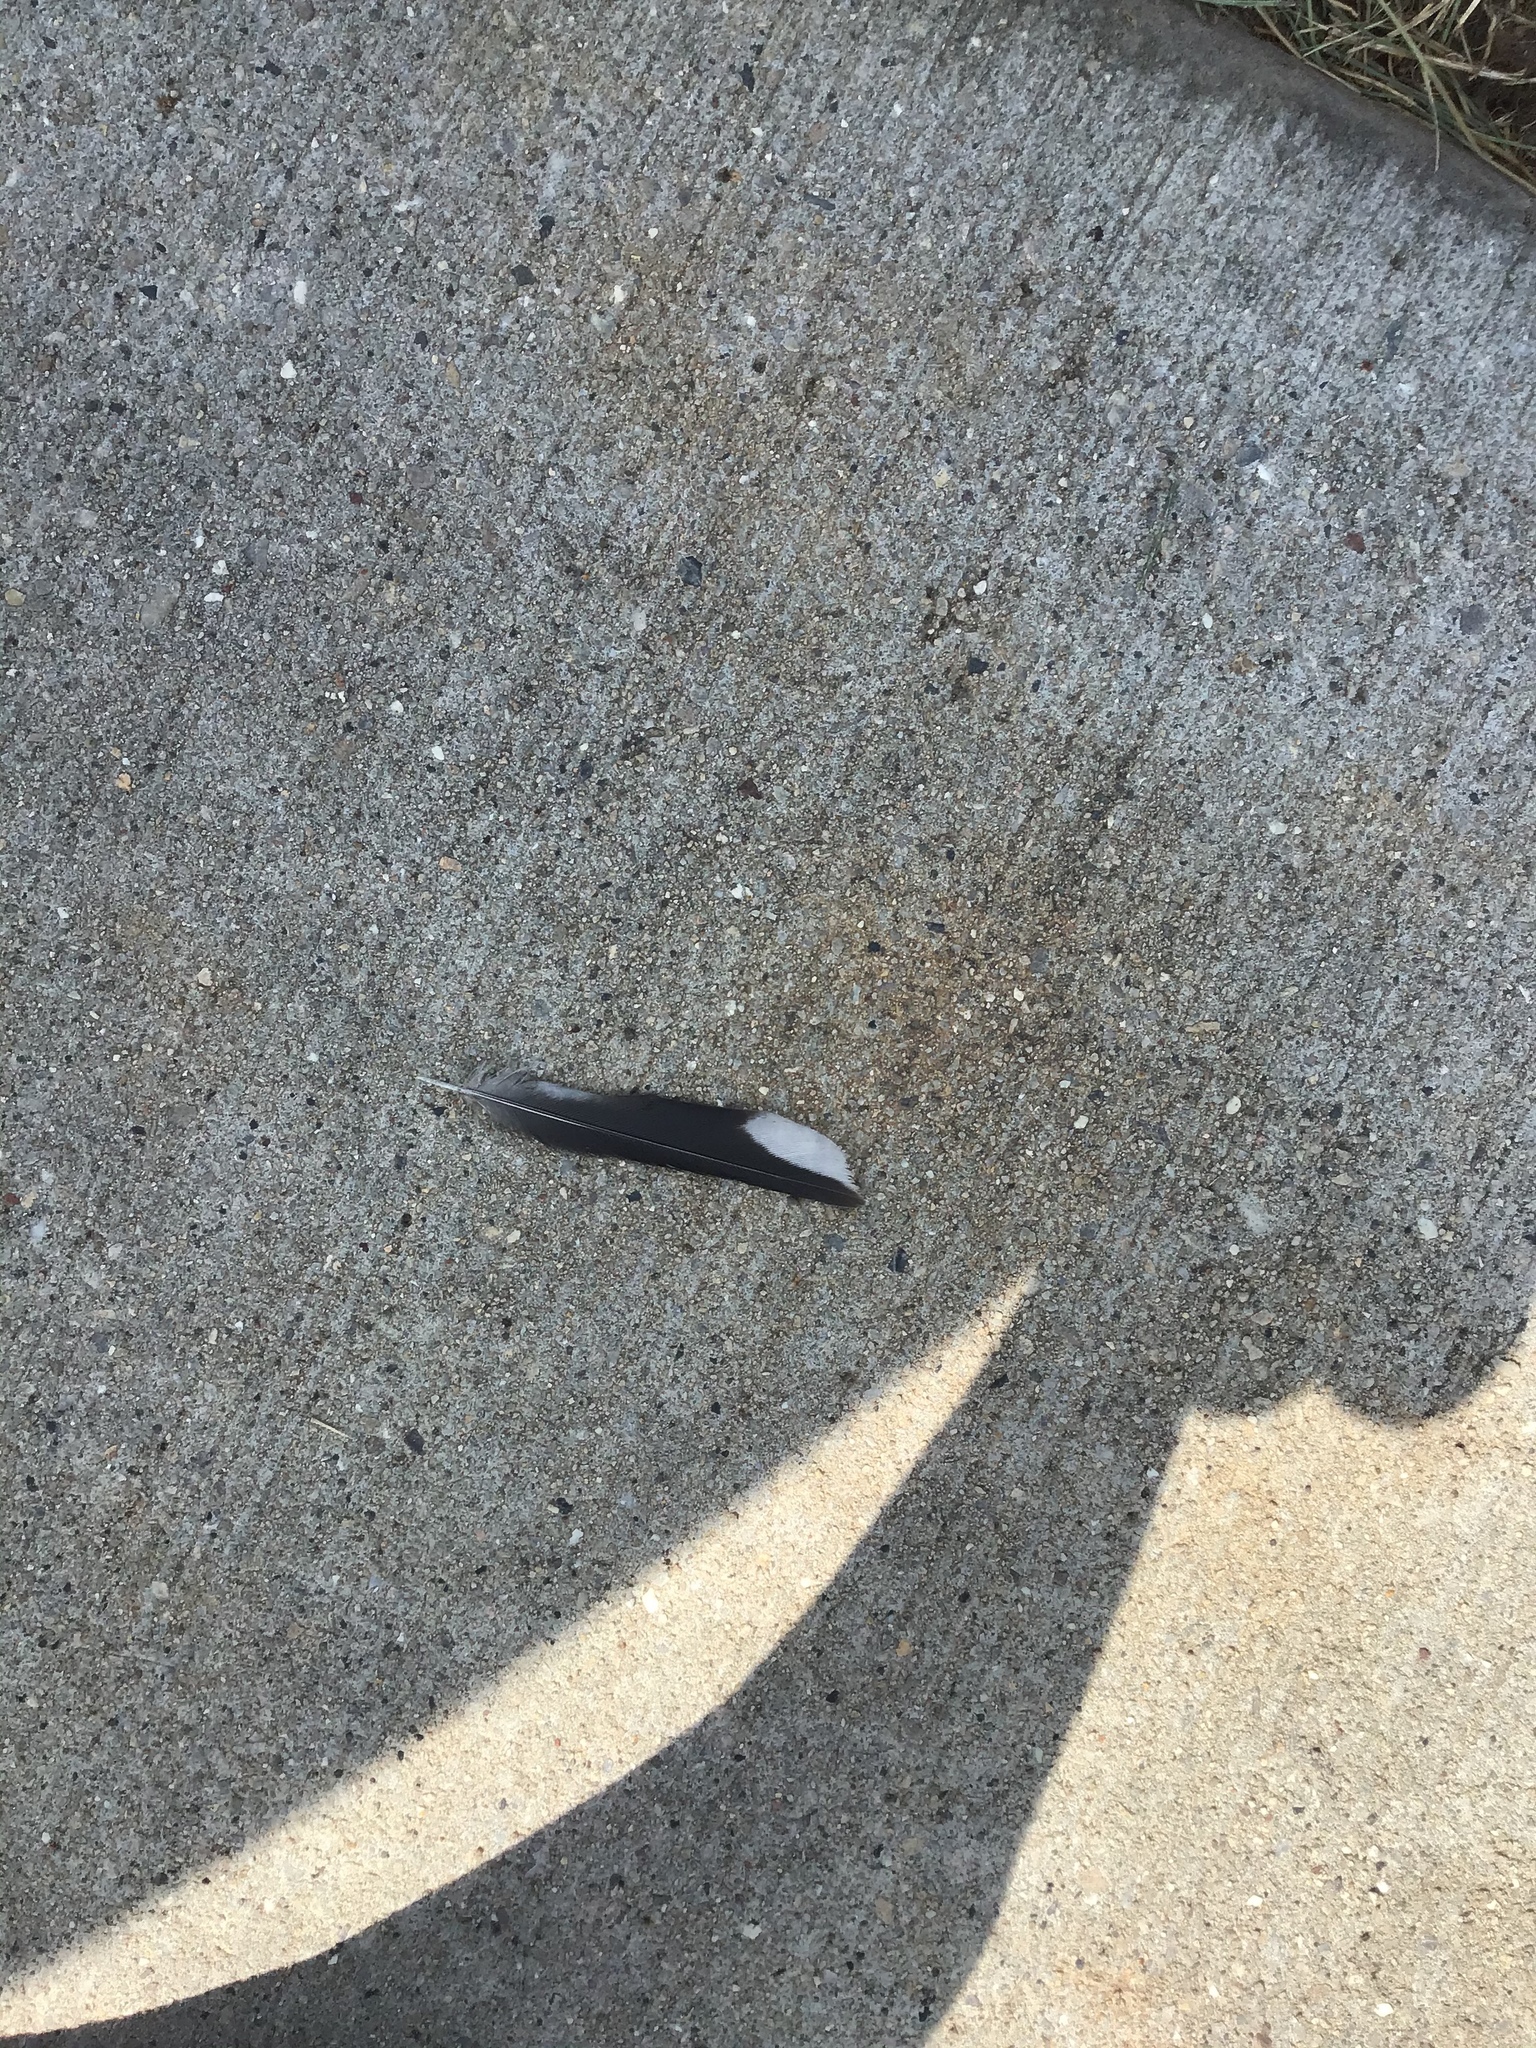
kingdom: Animalia
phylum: Chordata
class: Aves
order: Passeriformes
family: Fringillidae
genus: Spinus
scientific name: Spinus tristis
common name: American goldfinch
